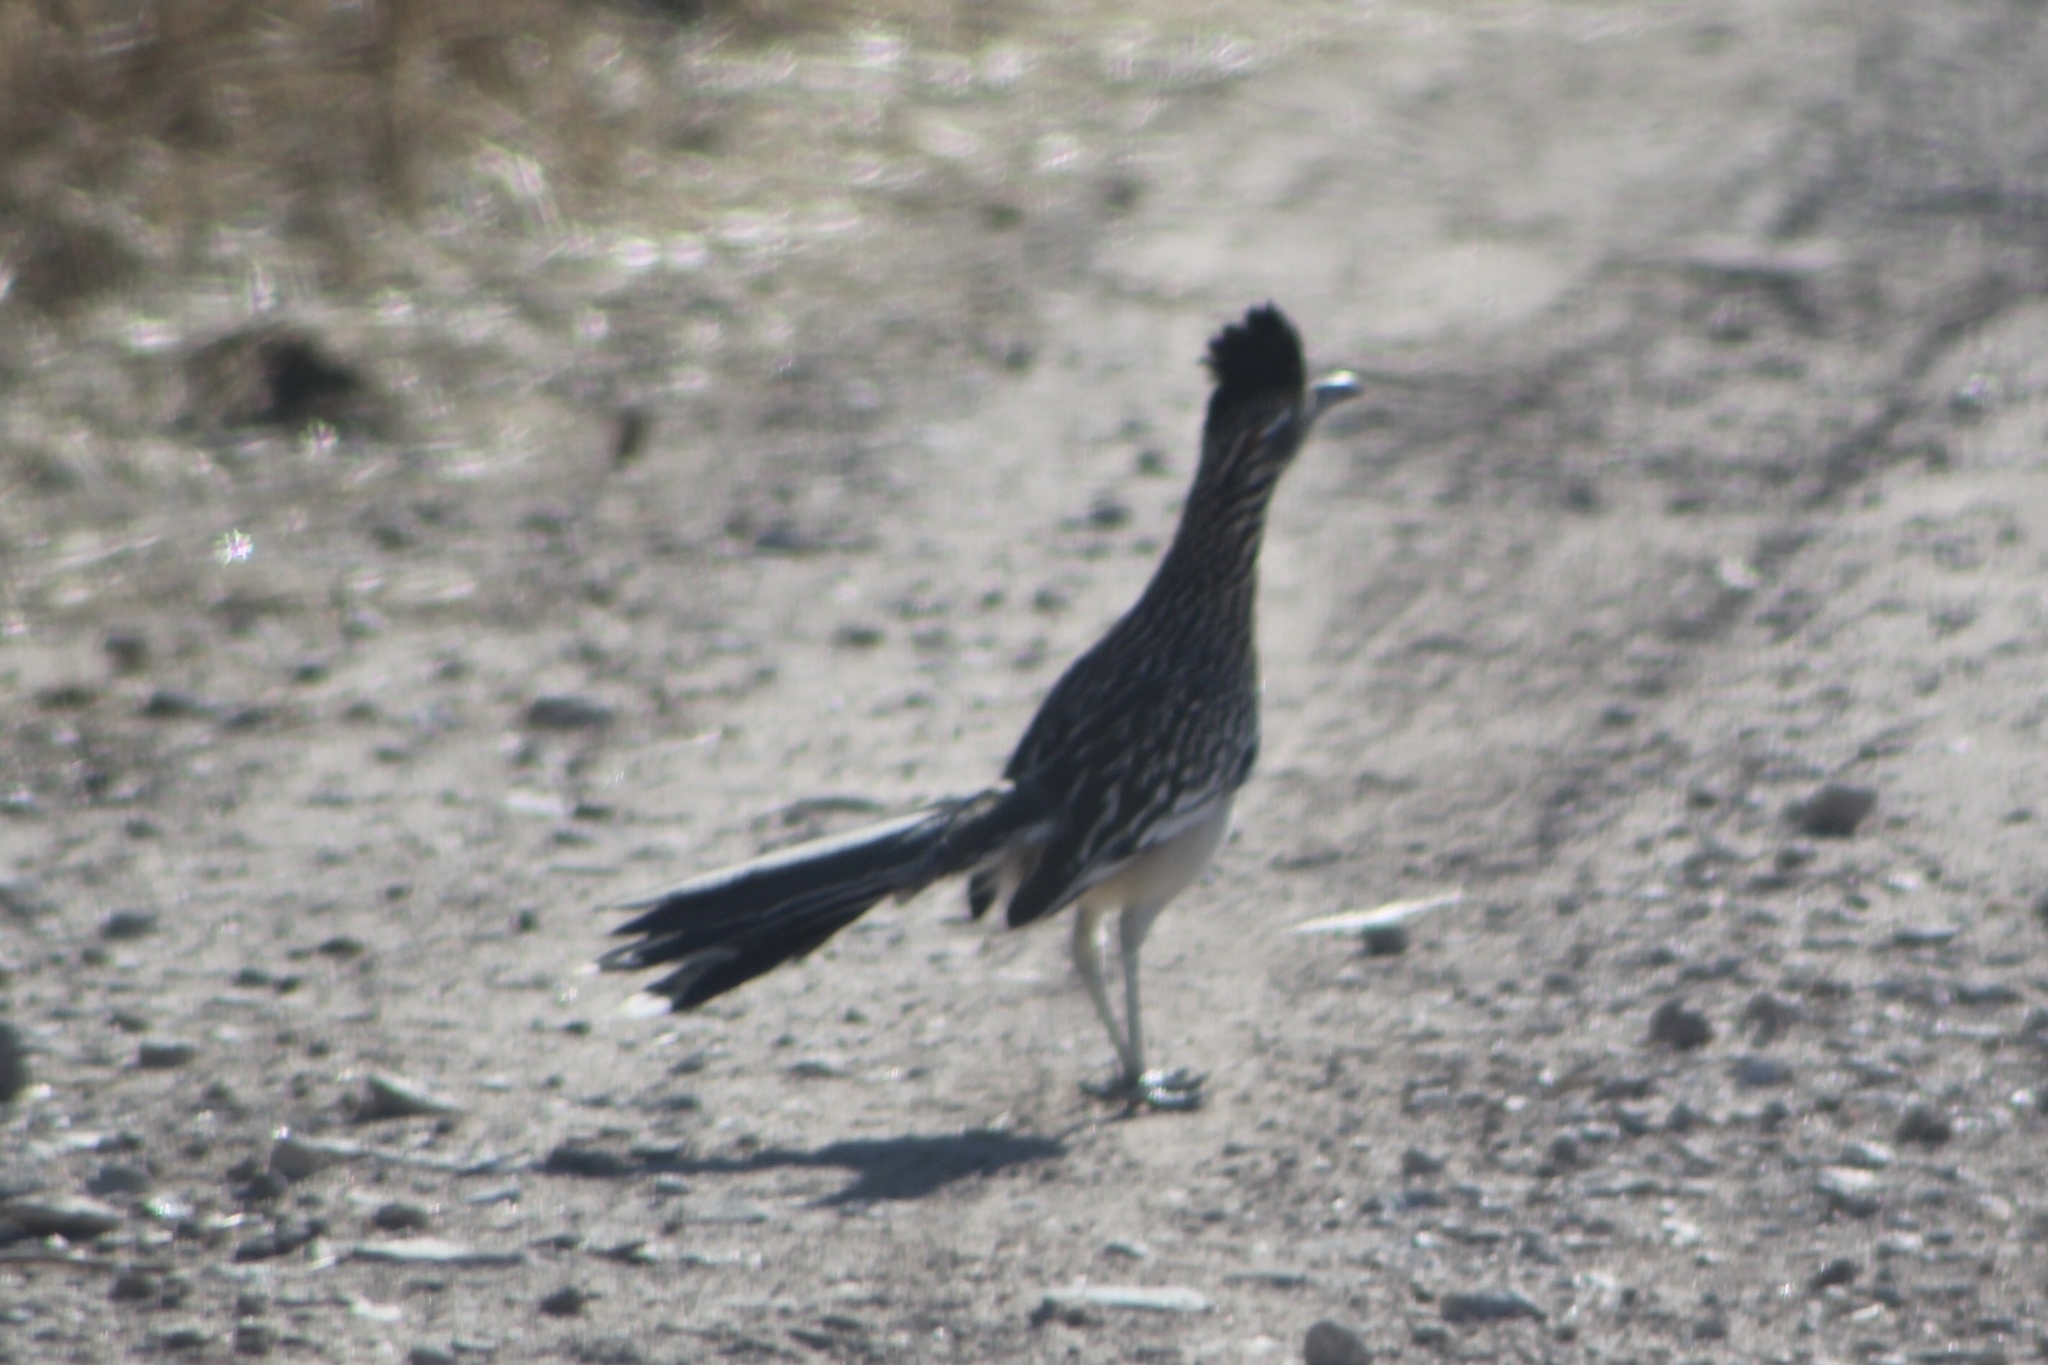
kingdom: Animalia
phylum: Chordata
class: Aves
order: Cuculiformes
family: Cuculidae
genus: Geococcyx
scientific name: Geococcyx californianus
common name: Greater roadrunner
